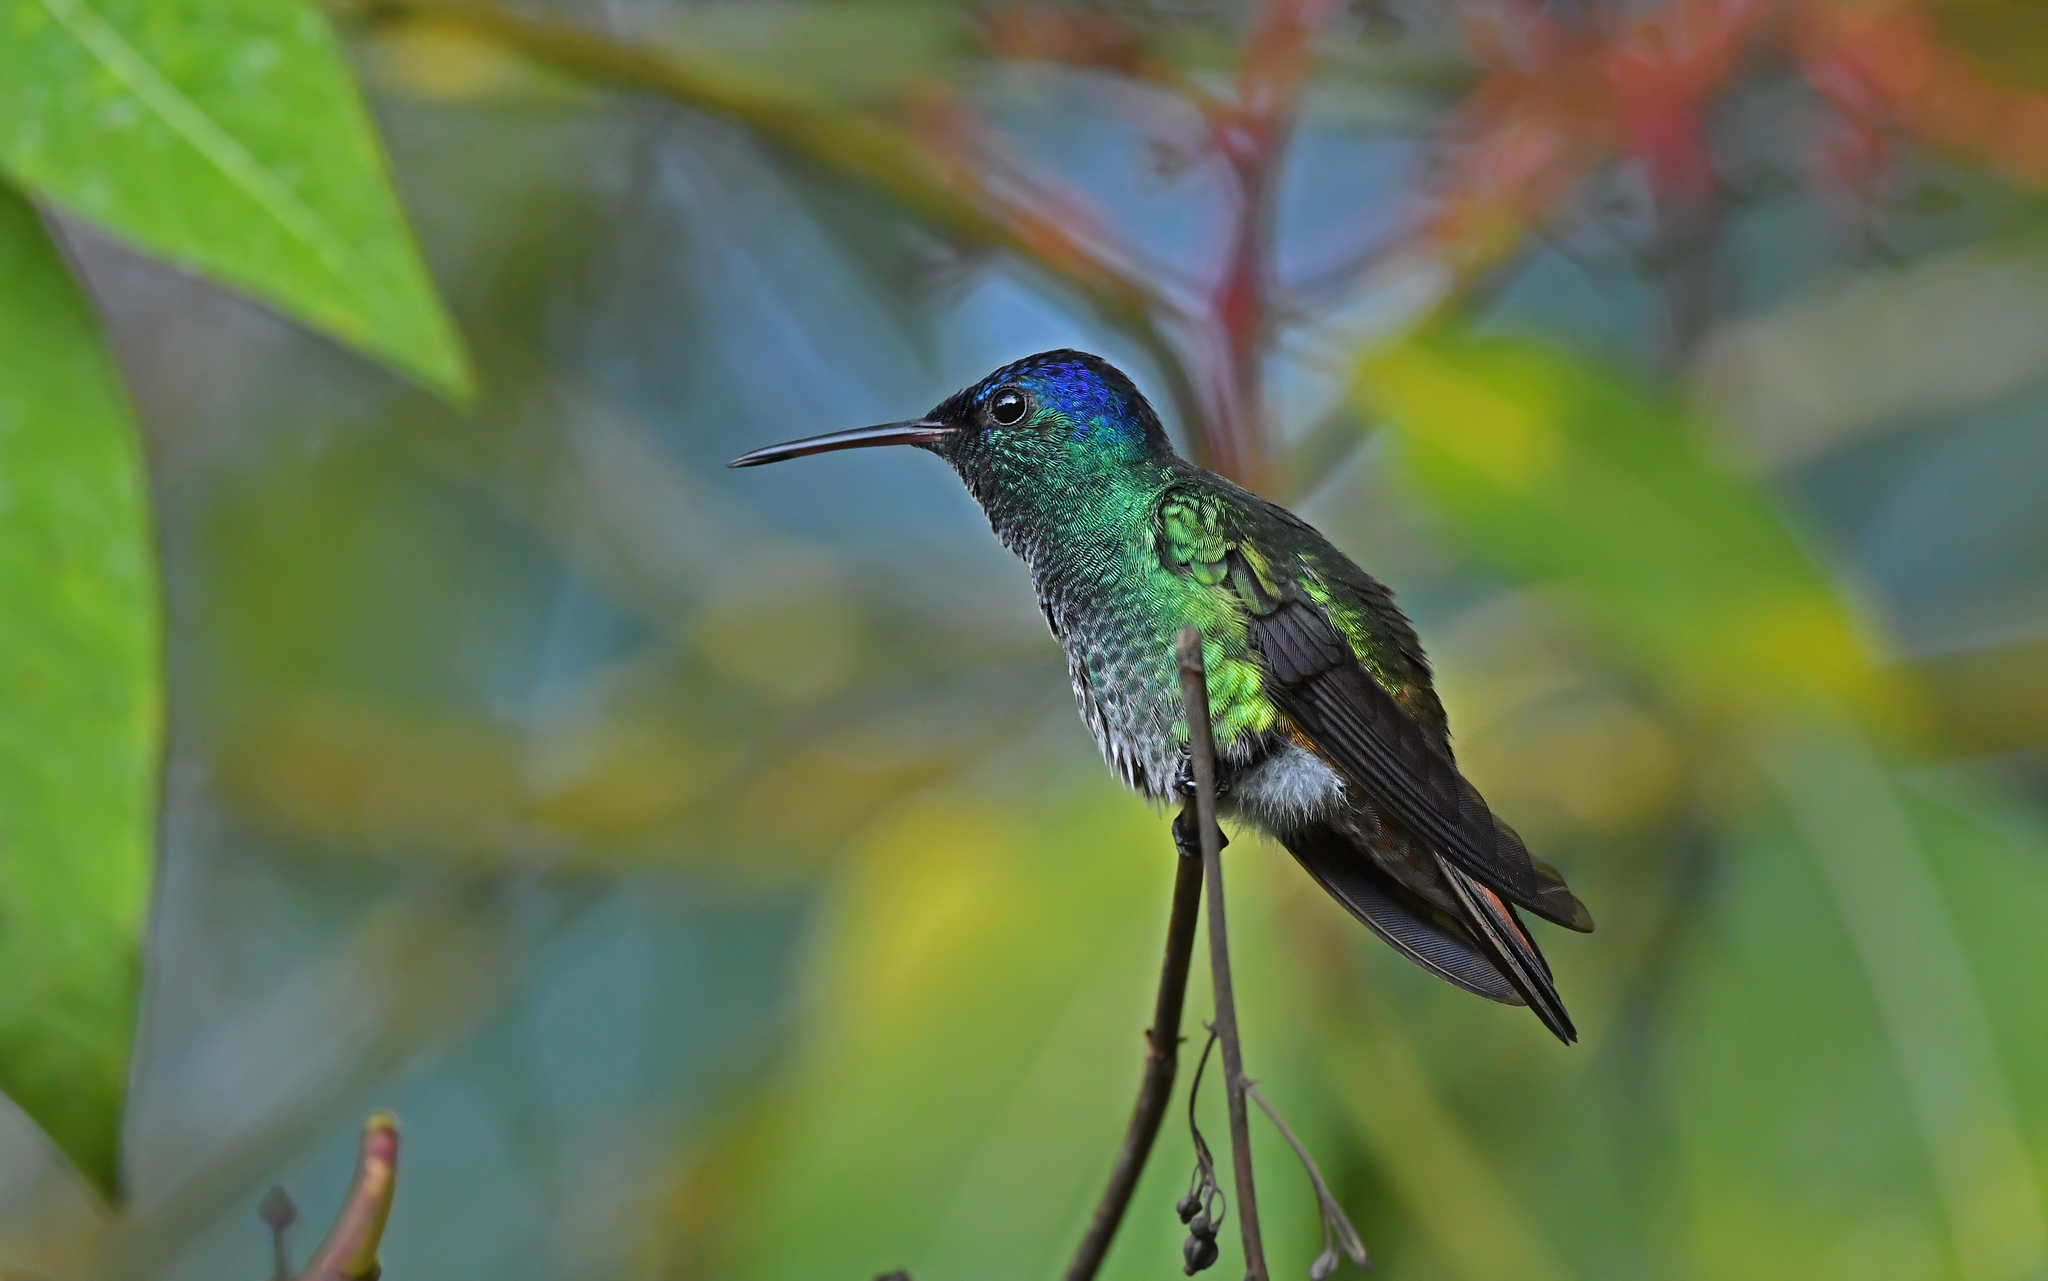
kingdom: Animalia
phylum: Chordata
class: Aves
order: Apodiformes
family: Trochilidae
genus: Chrysuronia
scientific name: Chrysuronia oenone
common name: Golden-tailed sapphire
